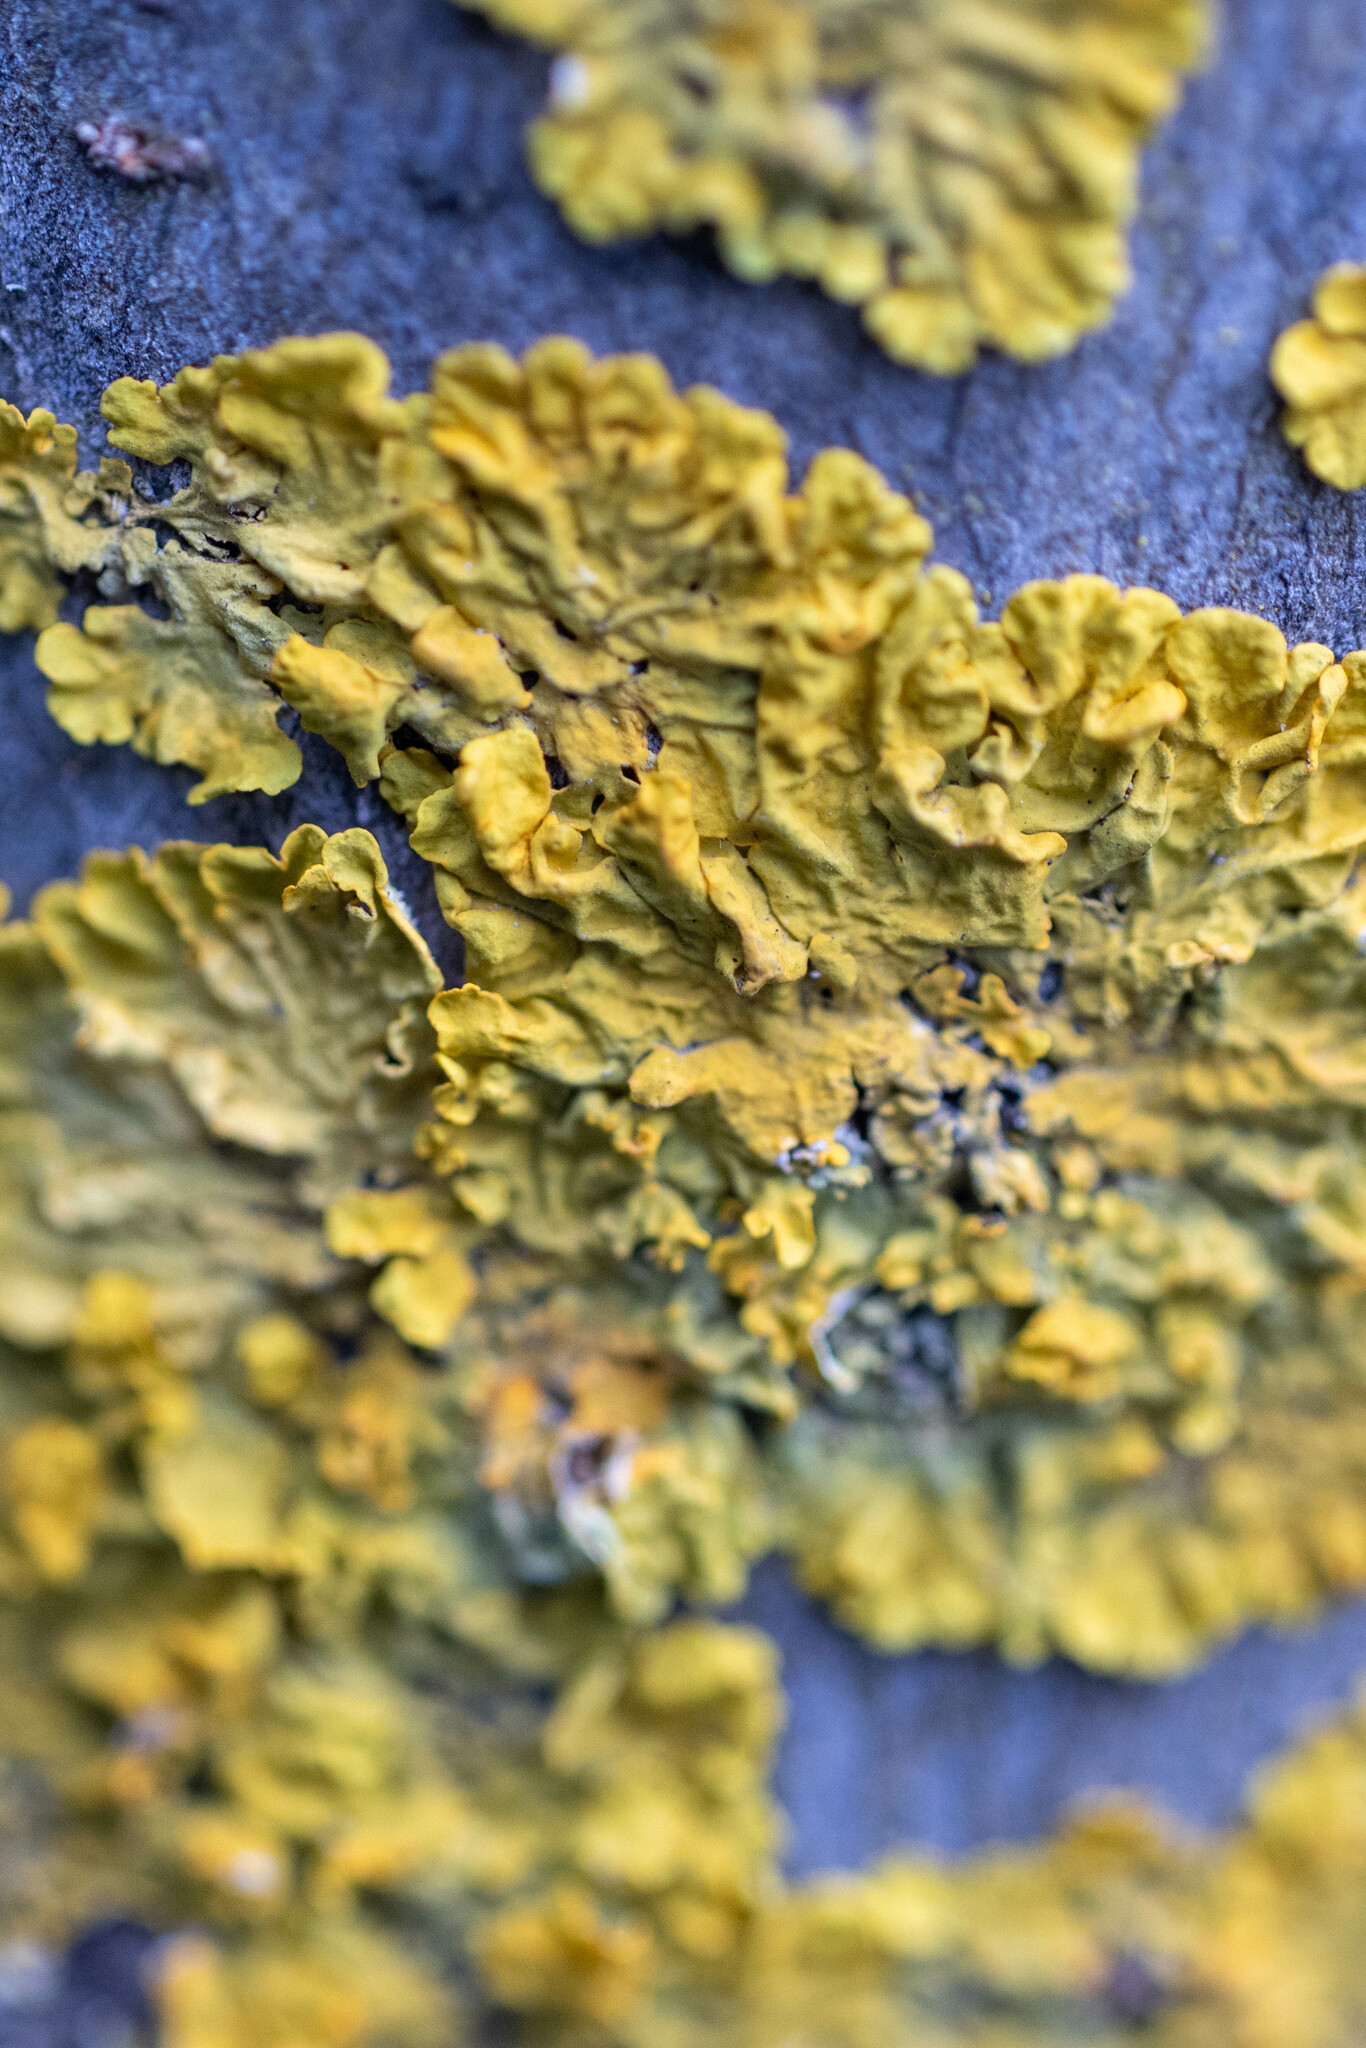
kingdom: Fungi
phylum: Ascomycota
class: Lecanoromycetes
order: Teloschistales
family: Teloschistaceae
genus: Xanthoria
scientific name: Xanthoria parietina
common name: Common orange lichen
